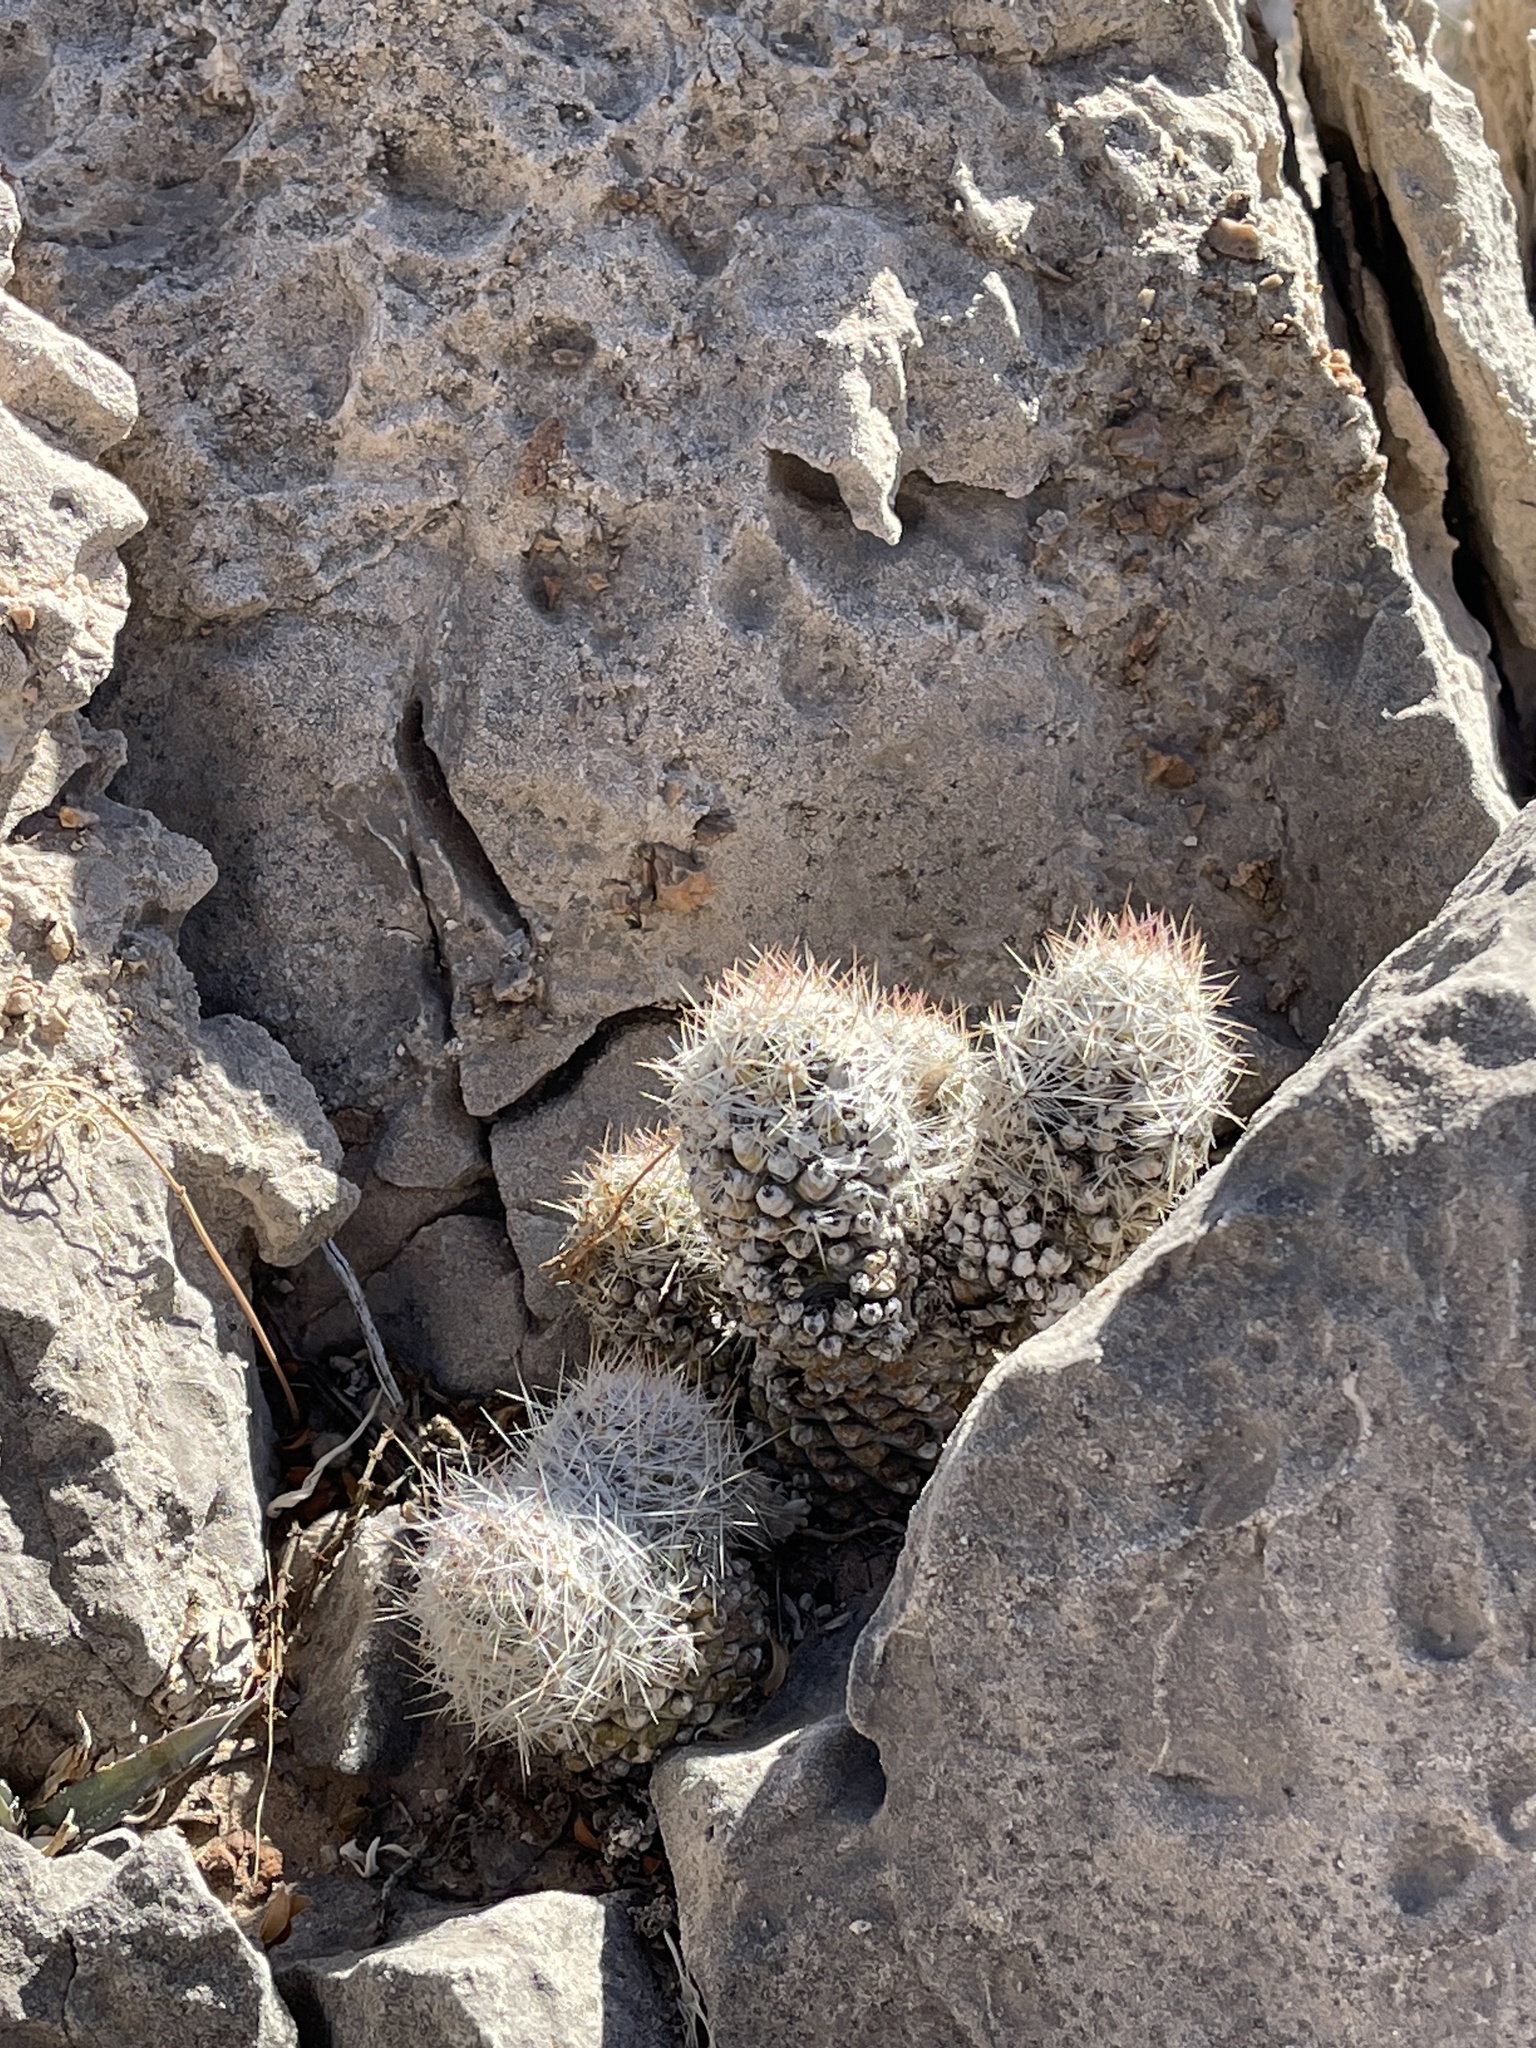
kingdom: Plantae
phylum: Tracheophyta
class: Magnoliopsida
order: Caryophyllales
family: Cactaceae
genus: Pelecyphora
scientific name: Pelecyphora tuberculosa
